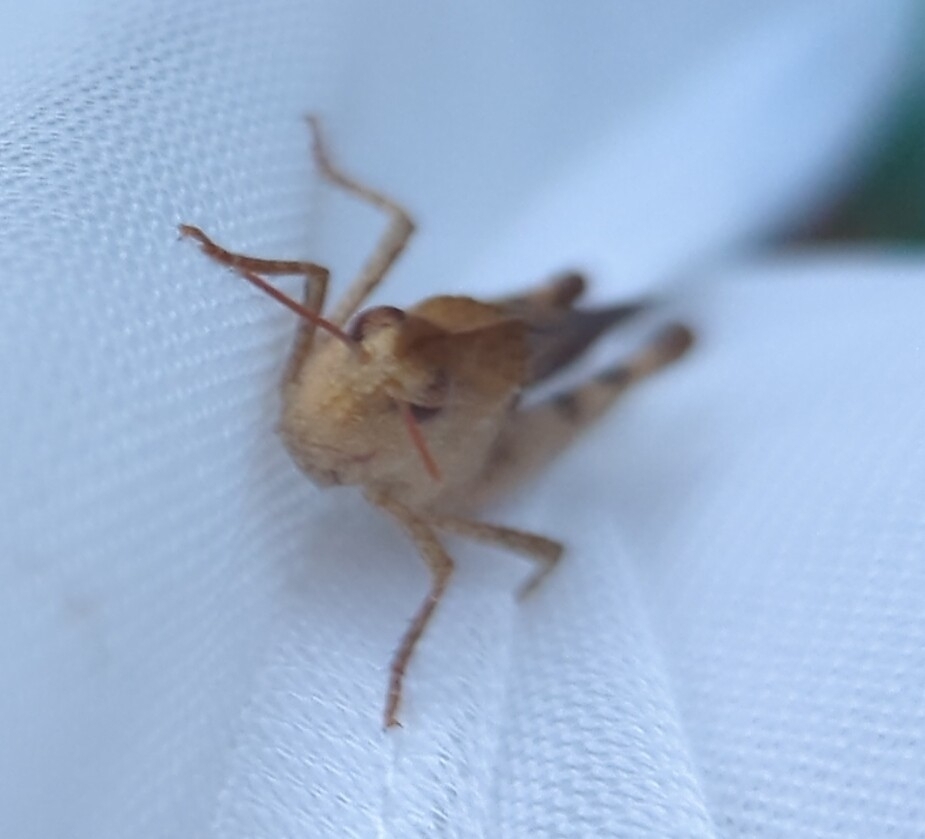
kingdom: Animalia
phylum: Arthropoda
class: Insecta
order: Orthoptera
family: Acrididae
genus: Chortophaga
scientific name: Chortophaga viridifasciata
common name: Green-striped grasshopper
